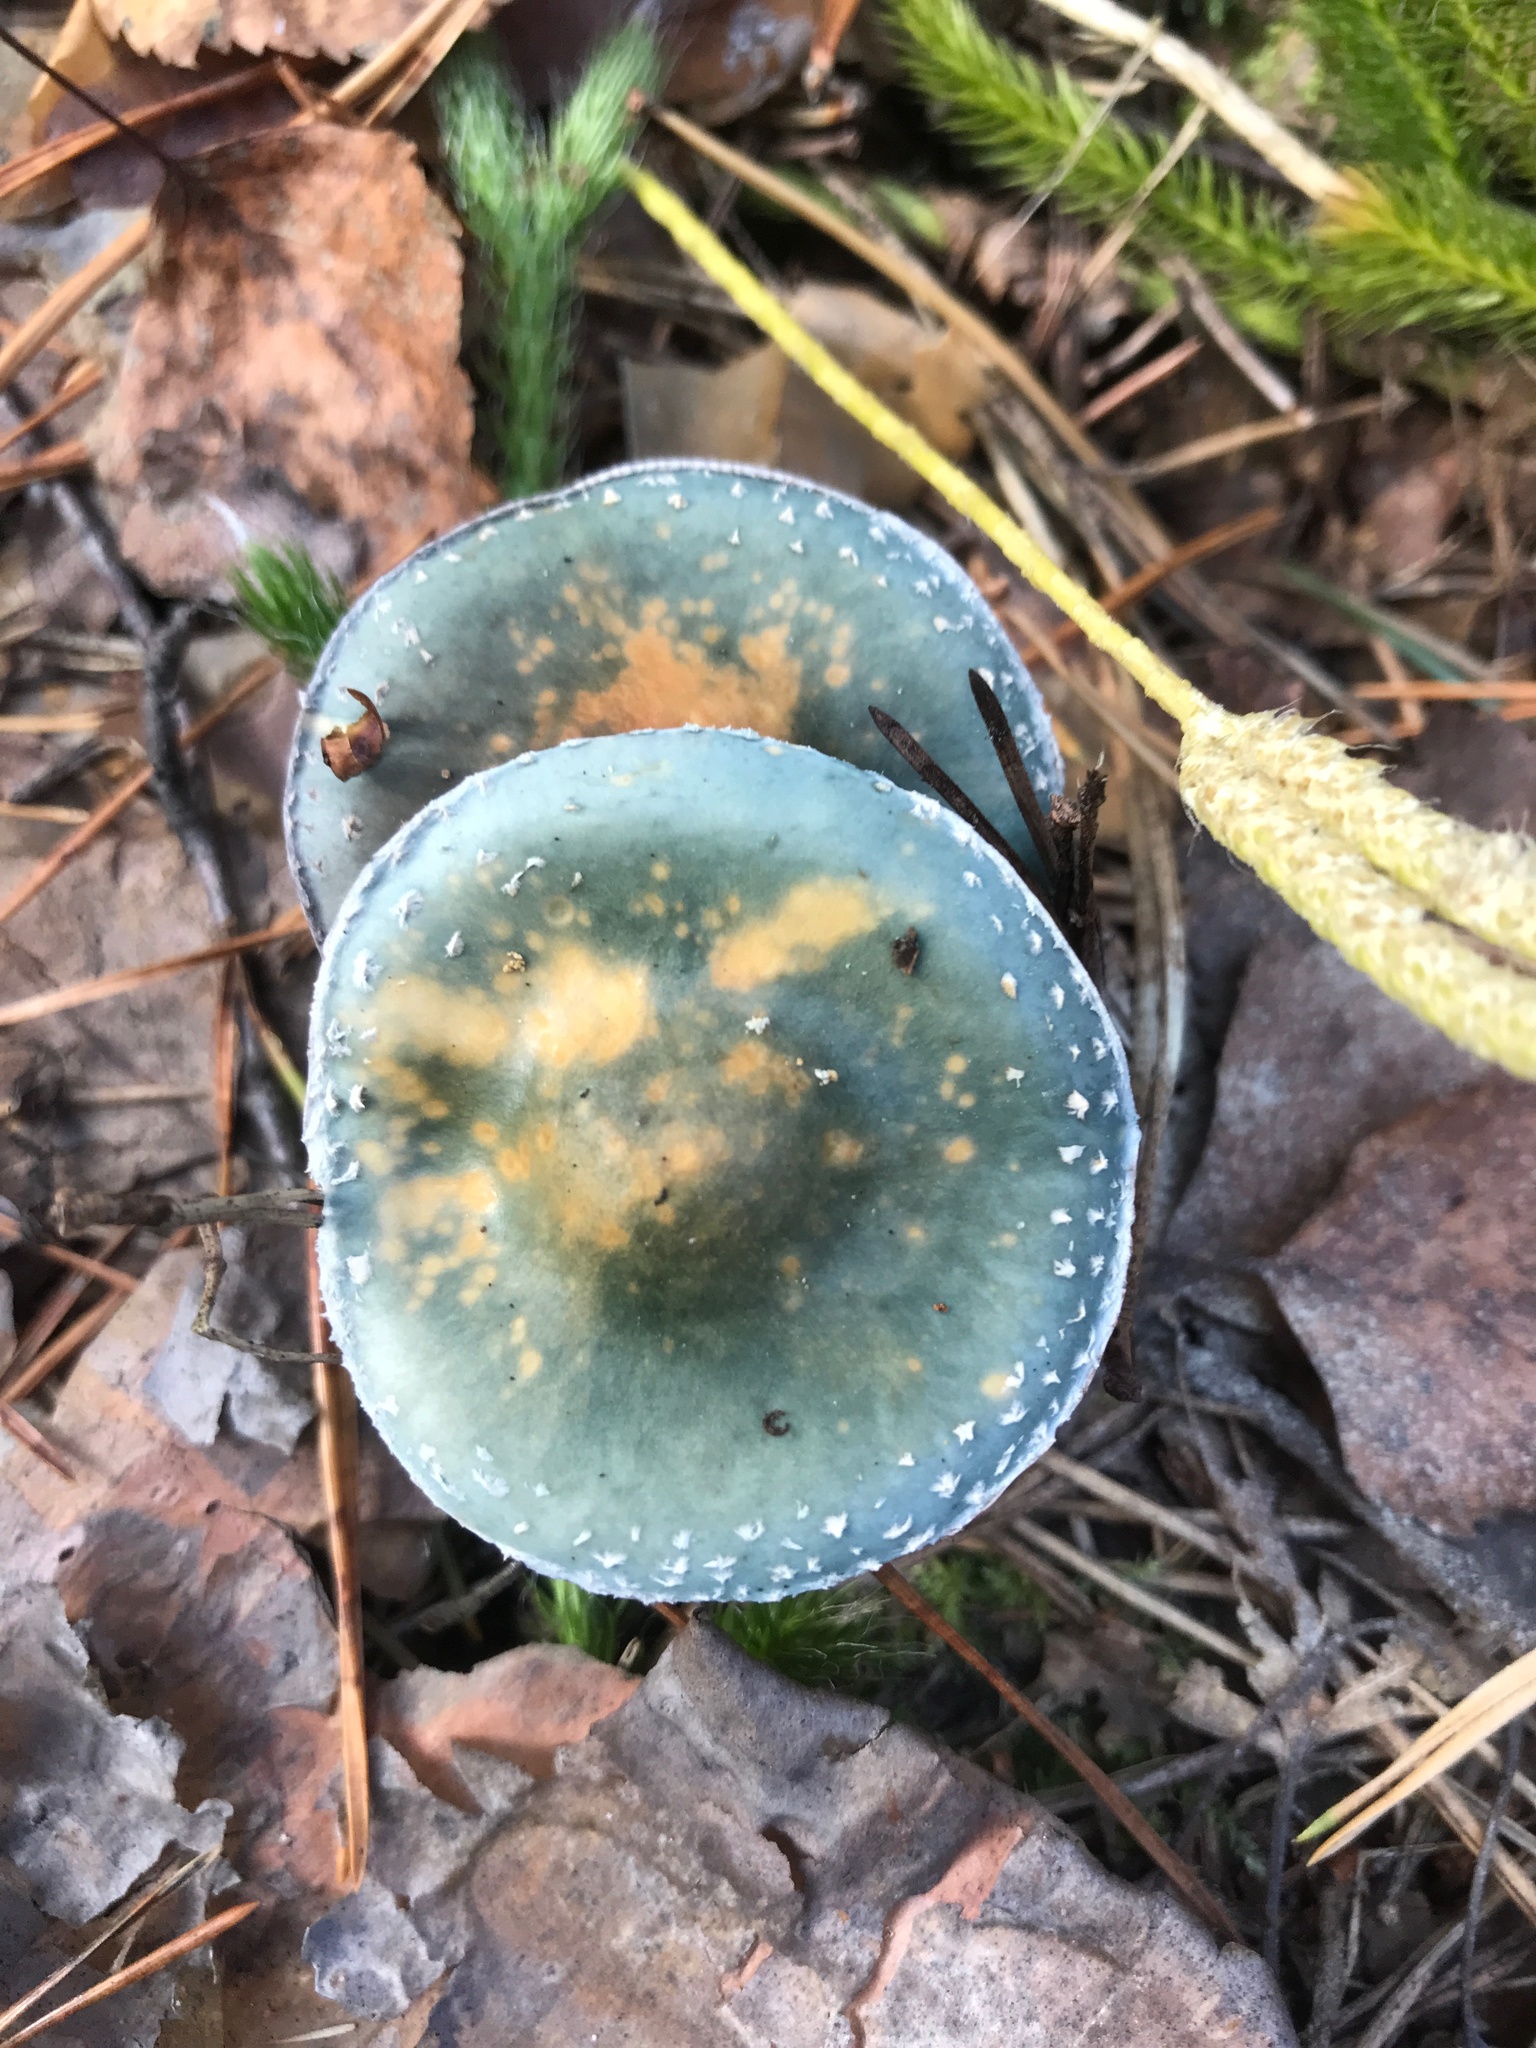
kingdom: Fungi
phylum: Basidiomycota
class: Agaricomycetes
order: Agaricales
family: Strophariaceae
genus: Stropharia
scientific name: Stropharia aeruginosa
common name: Verdigris roundhead
